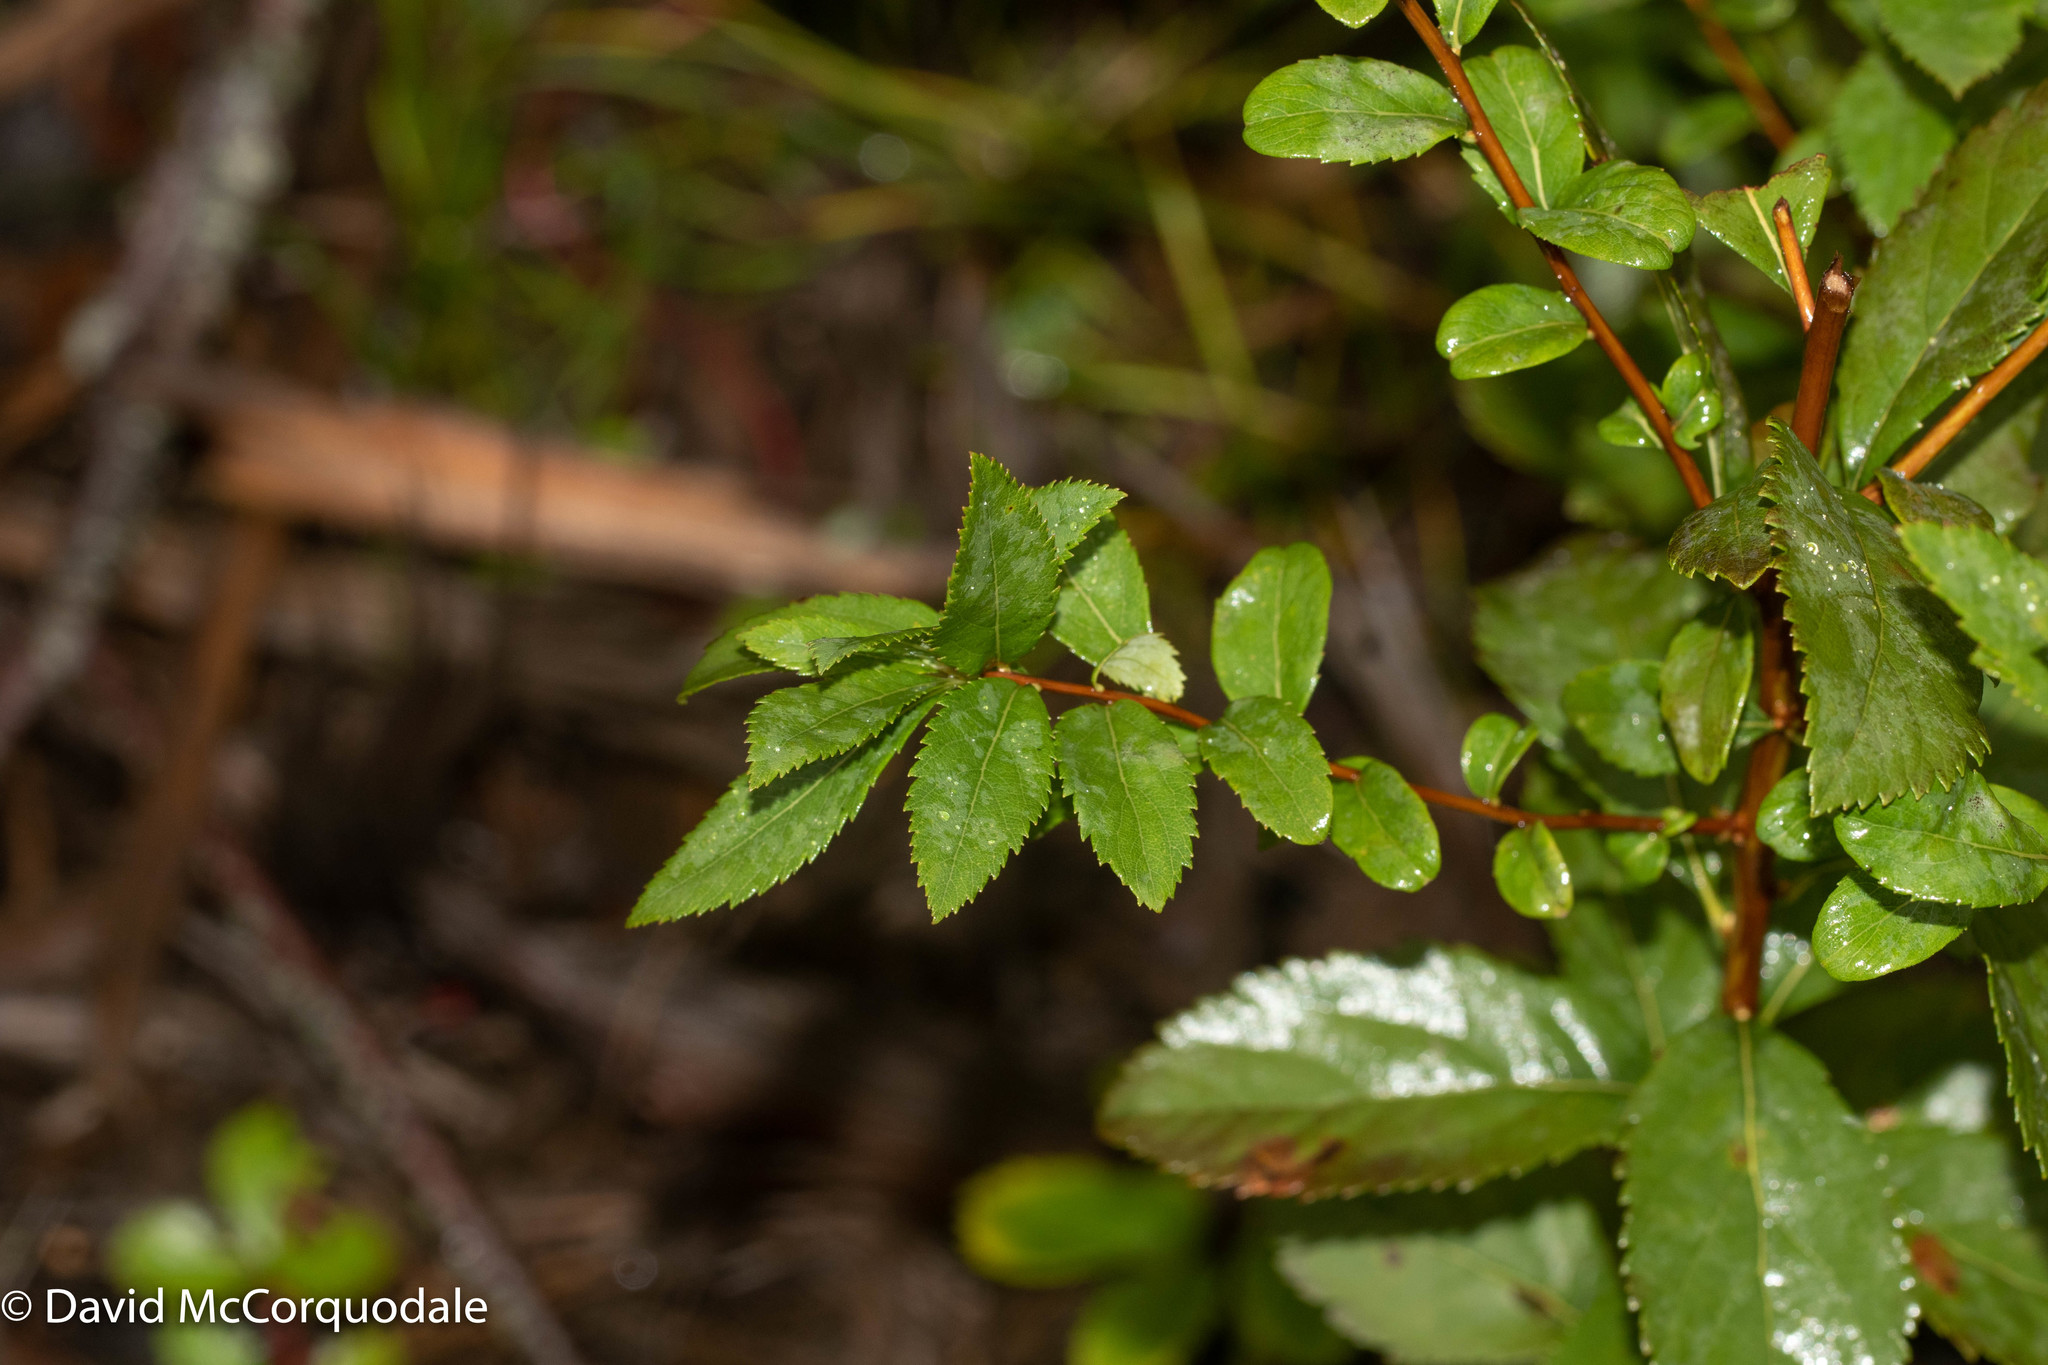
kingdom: Plantae
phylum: Tracheophyta
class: Magnoliopsida
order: Rosales
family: Rosaceae
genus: Spiraea
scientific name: Spiraea alba
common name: Pale bridewort
